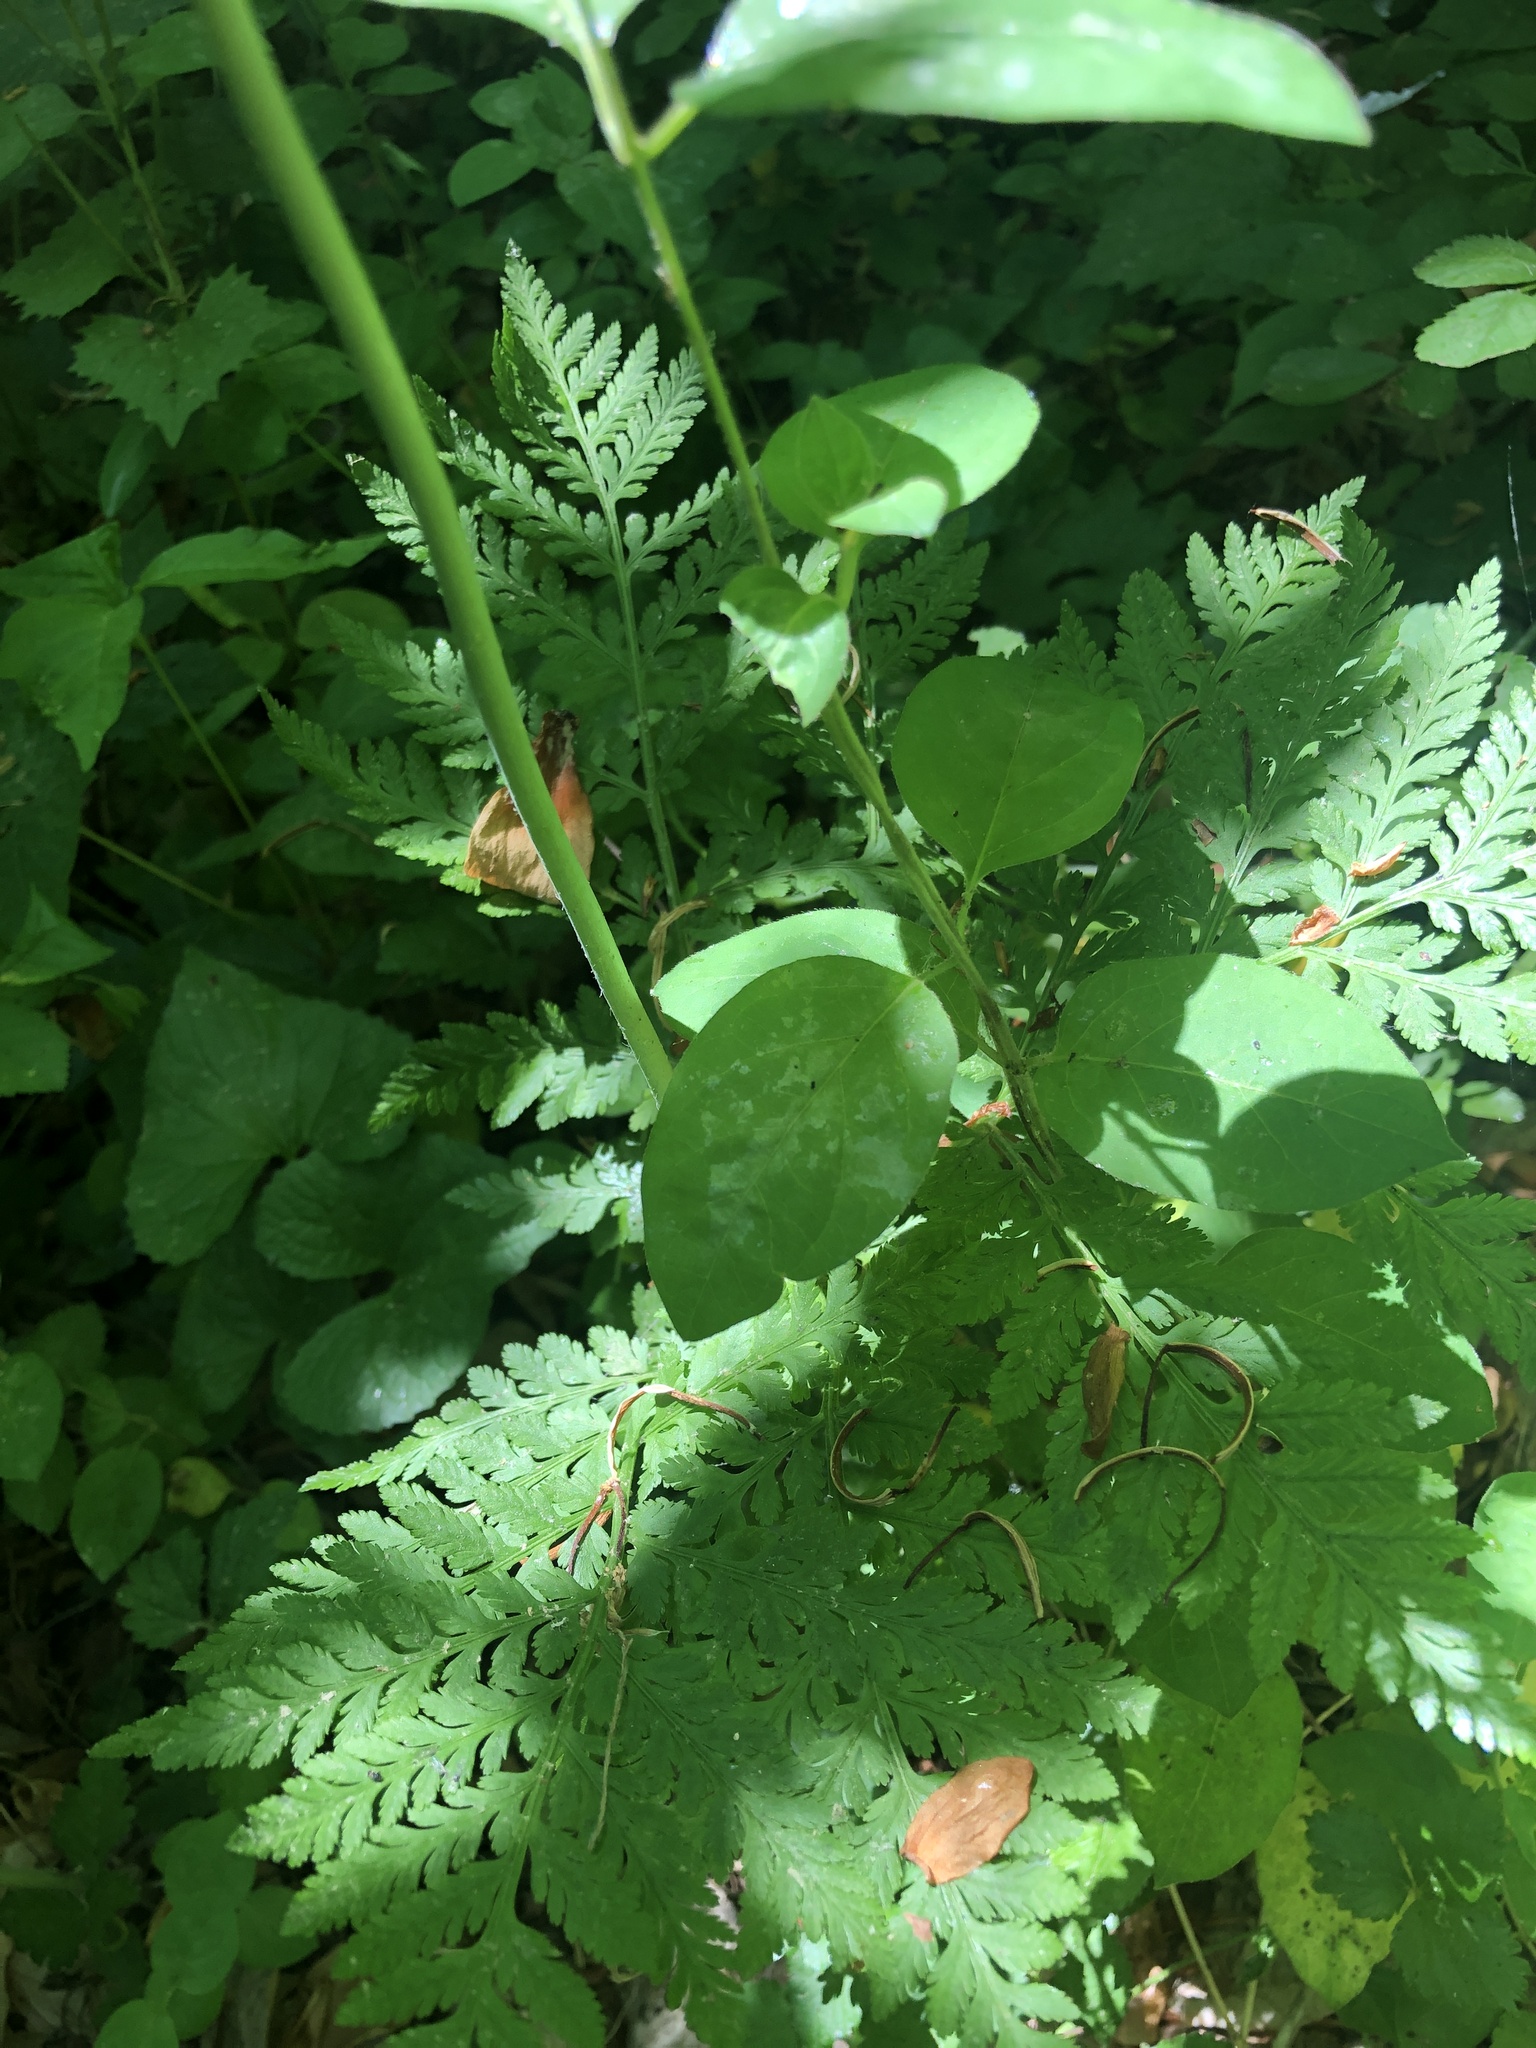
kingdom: Plantae
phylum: Tracheophyta
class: Polypodiopsida
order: Ophioglossales
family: Ophioglossaceae
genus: Botrypus
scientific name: Botrypus virginianus
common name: Common grapefern
